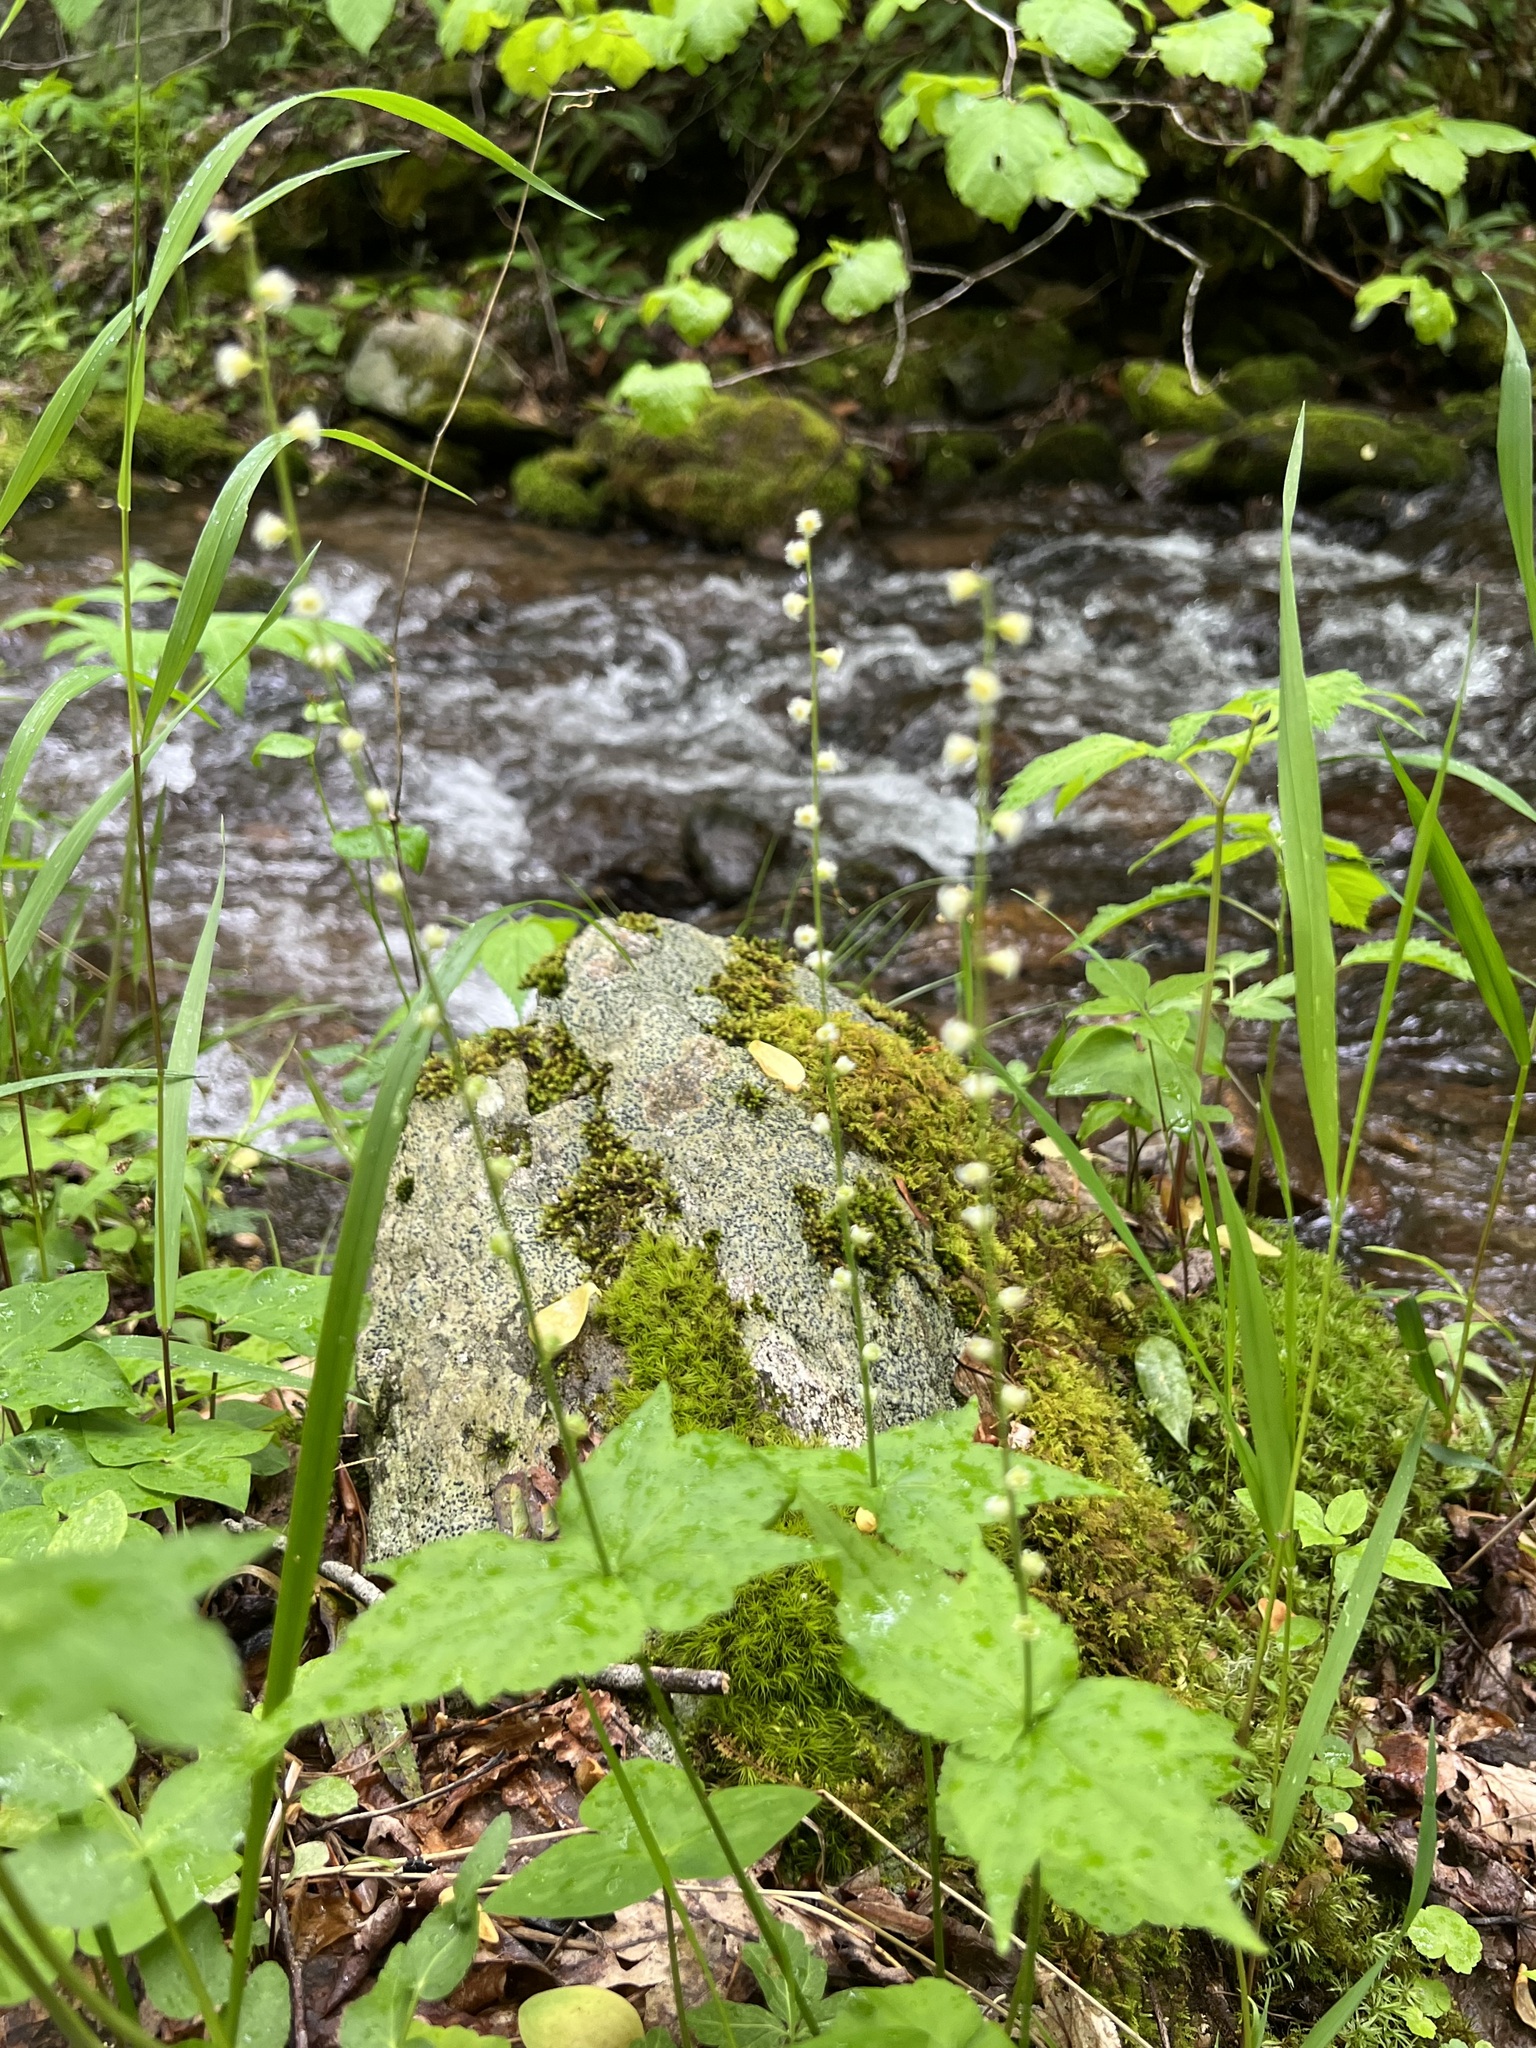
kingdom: Plantae
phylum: Tracheophyta
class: Magnoliopsida
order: Saxifragales
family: Saxifragaceae
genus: Mitella
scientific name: Mitella diphylla
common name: Coolwort
